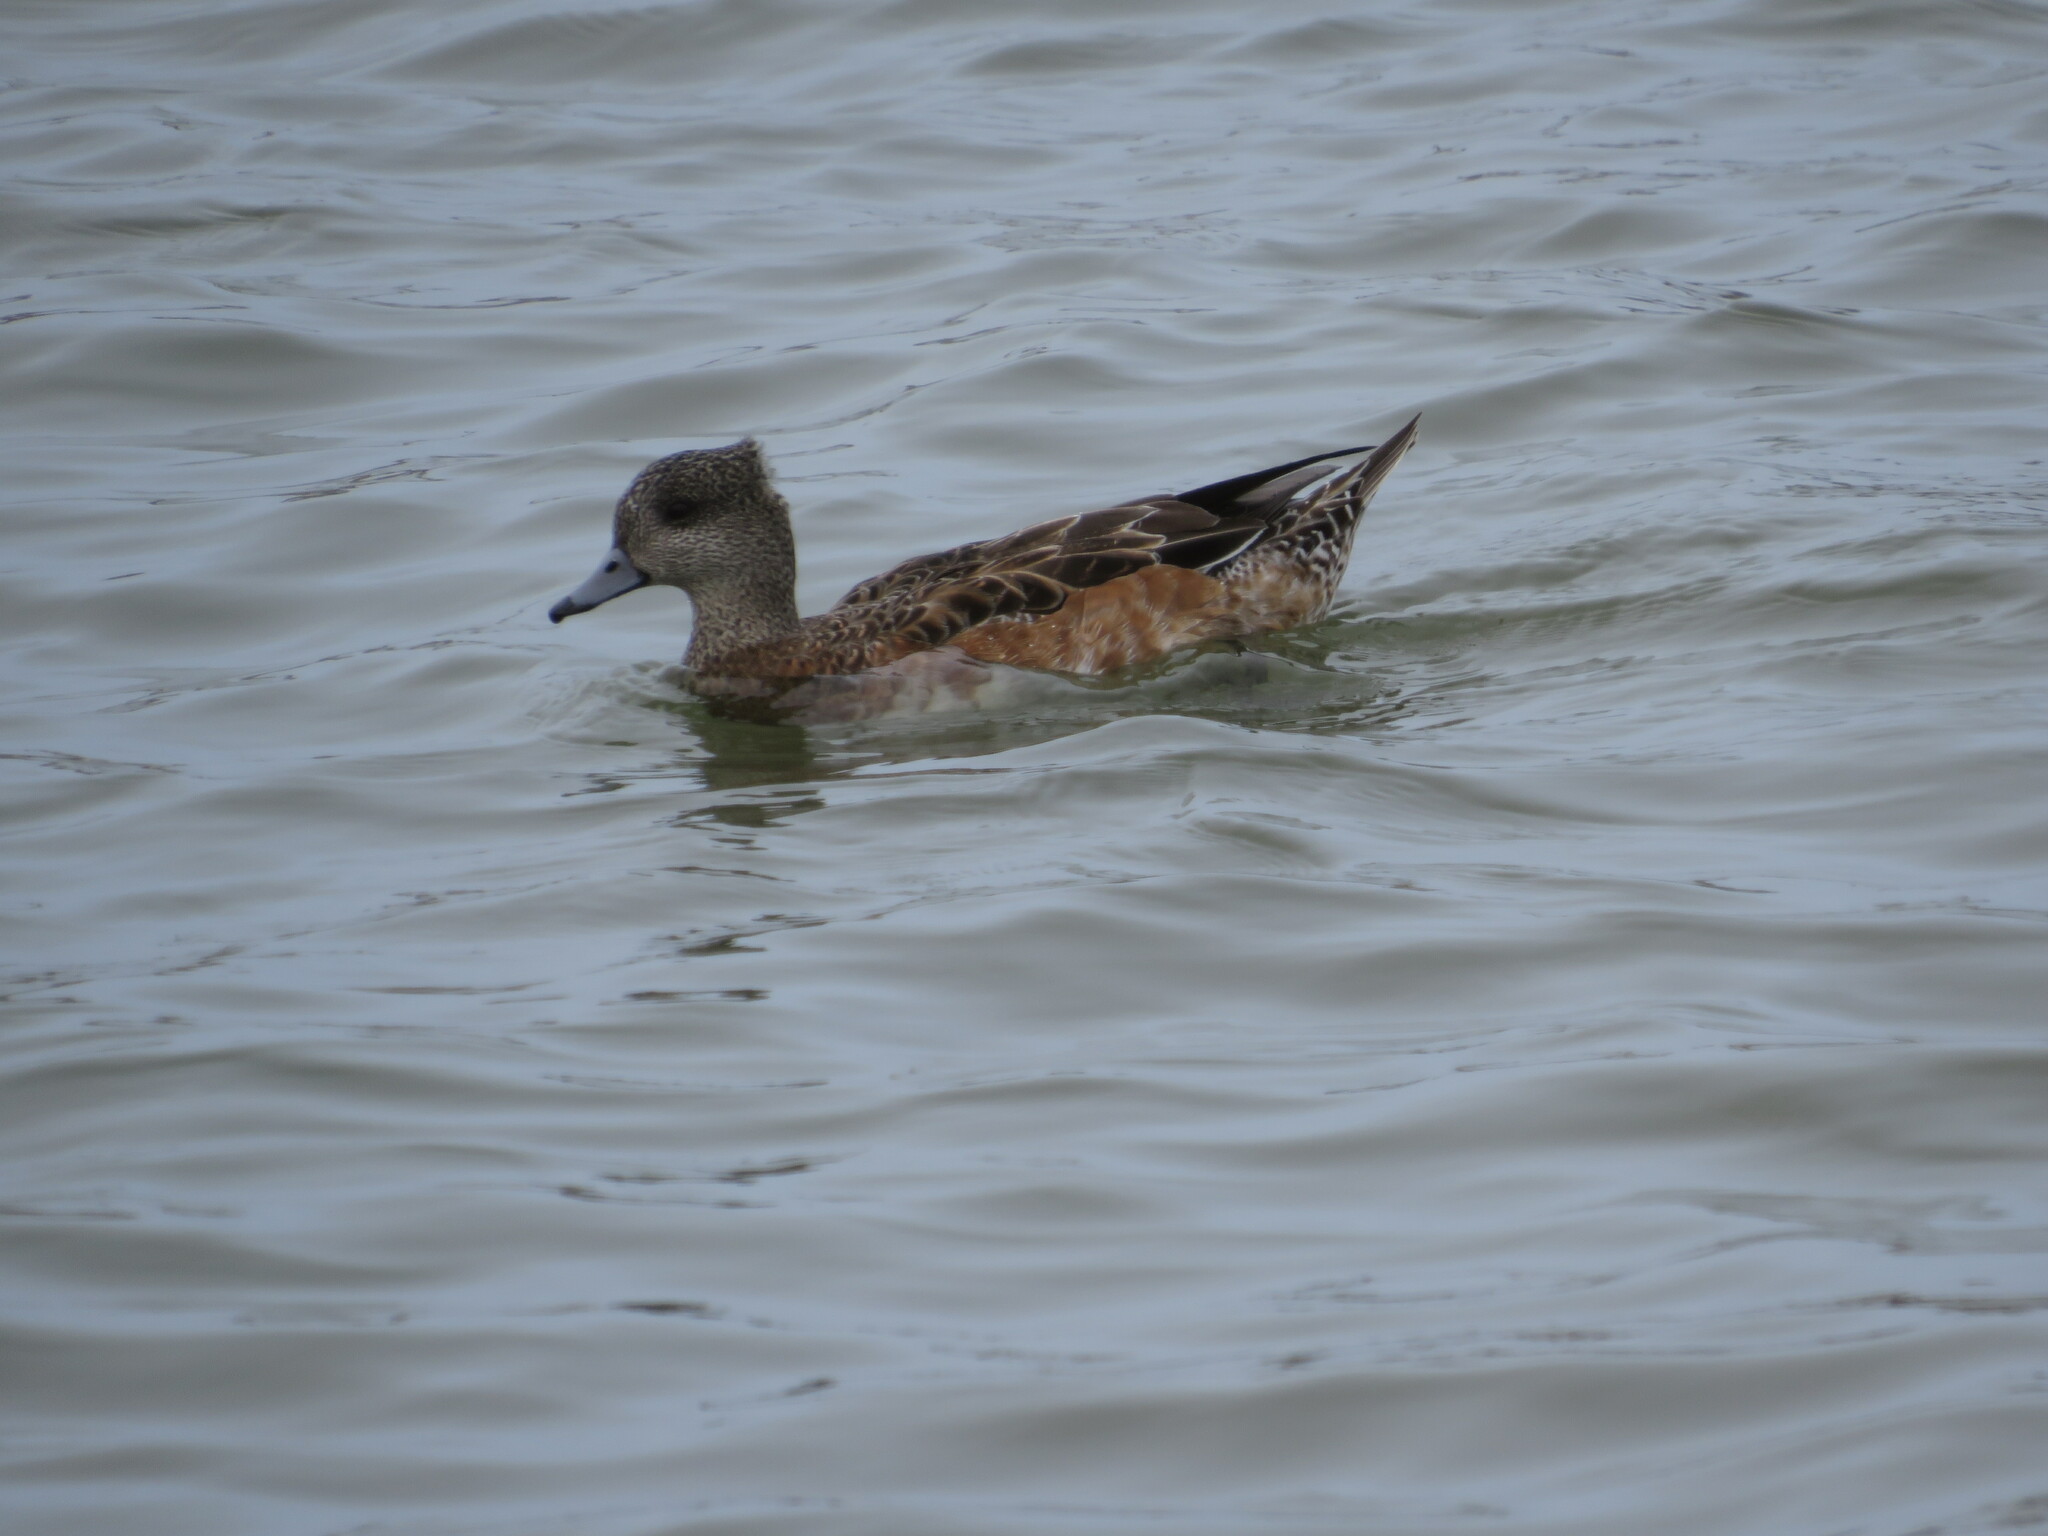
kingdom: Animalia
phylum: Chordata
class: Aves
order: Anseriformes
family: Anatidae
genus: Mareca
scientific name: Mareca americana
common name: American wigeon
